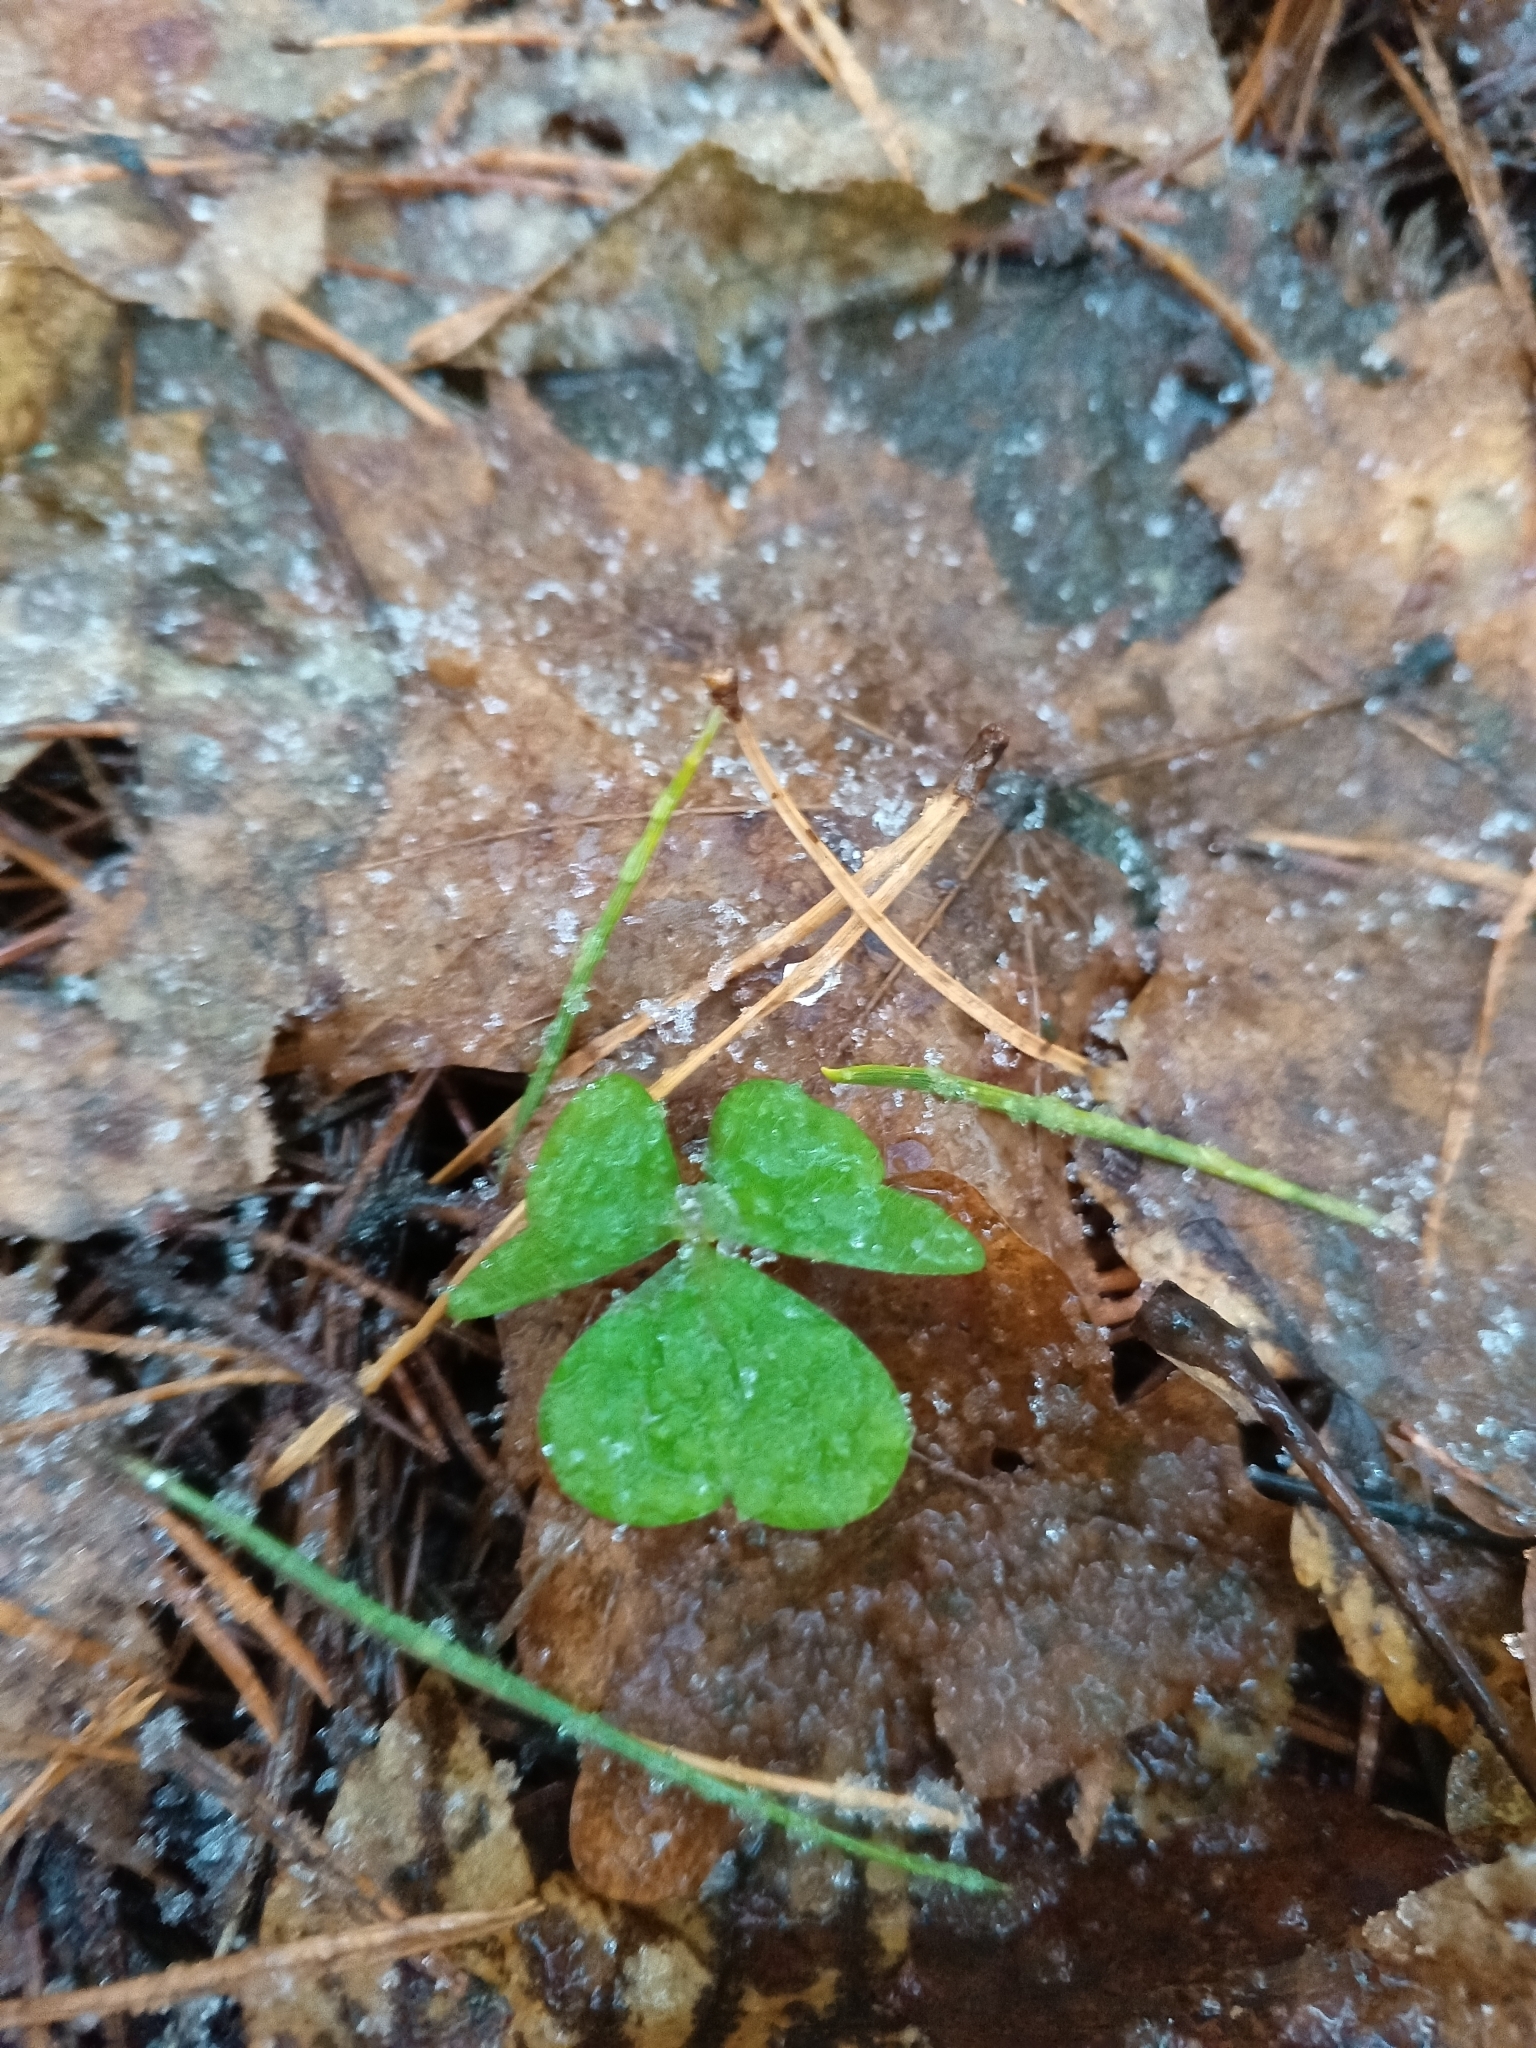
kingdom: Plantae
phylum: Tracheophyta
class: Magnoliopsida
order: Oxalidales
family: Oxalidaceae
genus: Oxalis
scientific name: Oxalis acetosella
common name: Wood-sorrel
